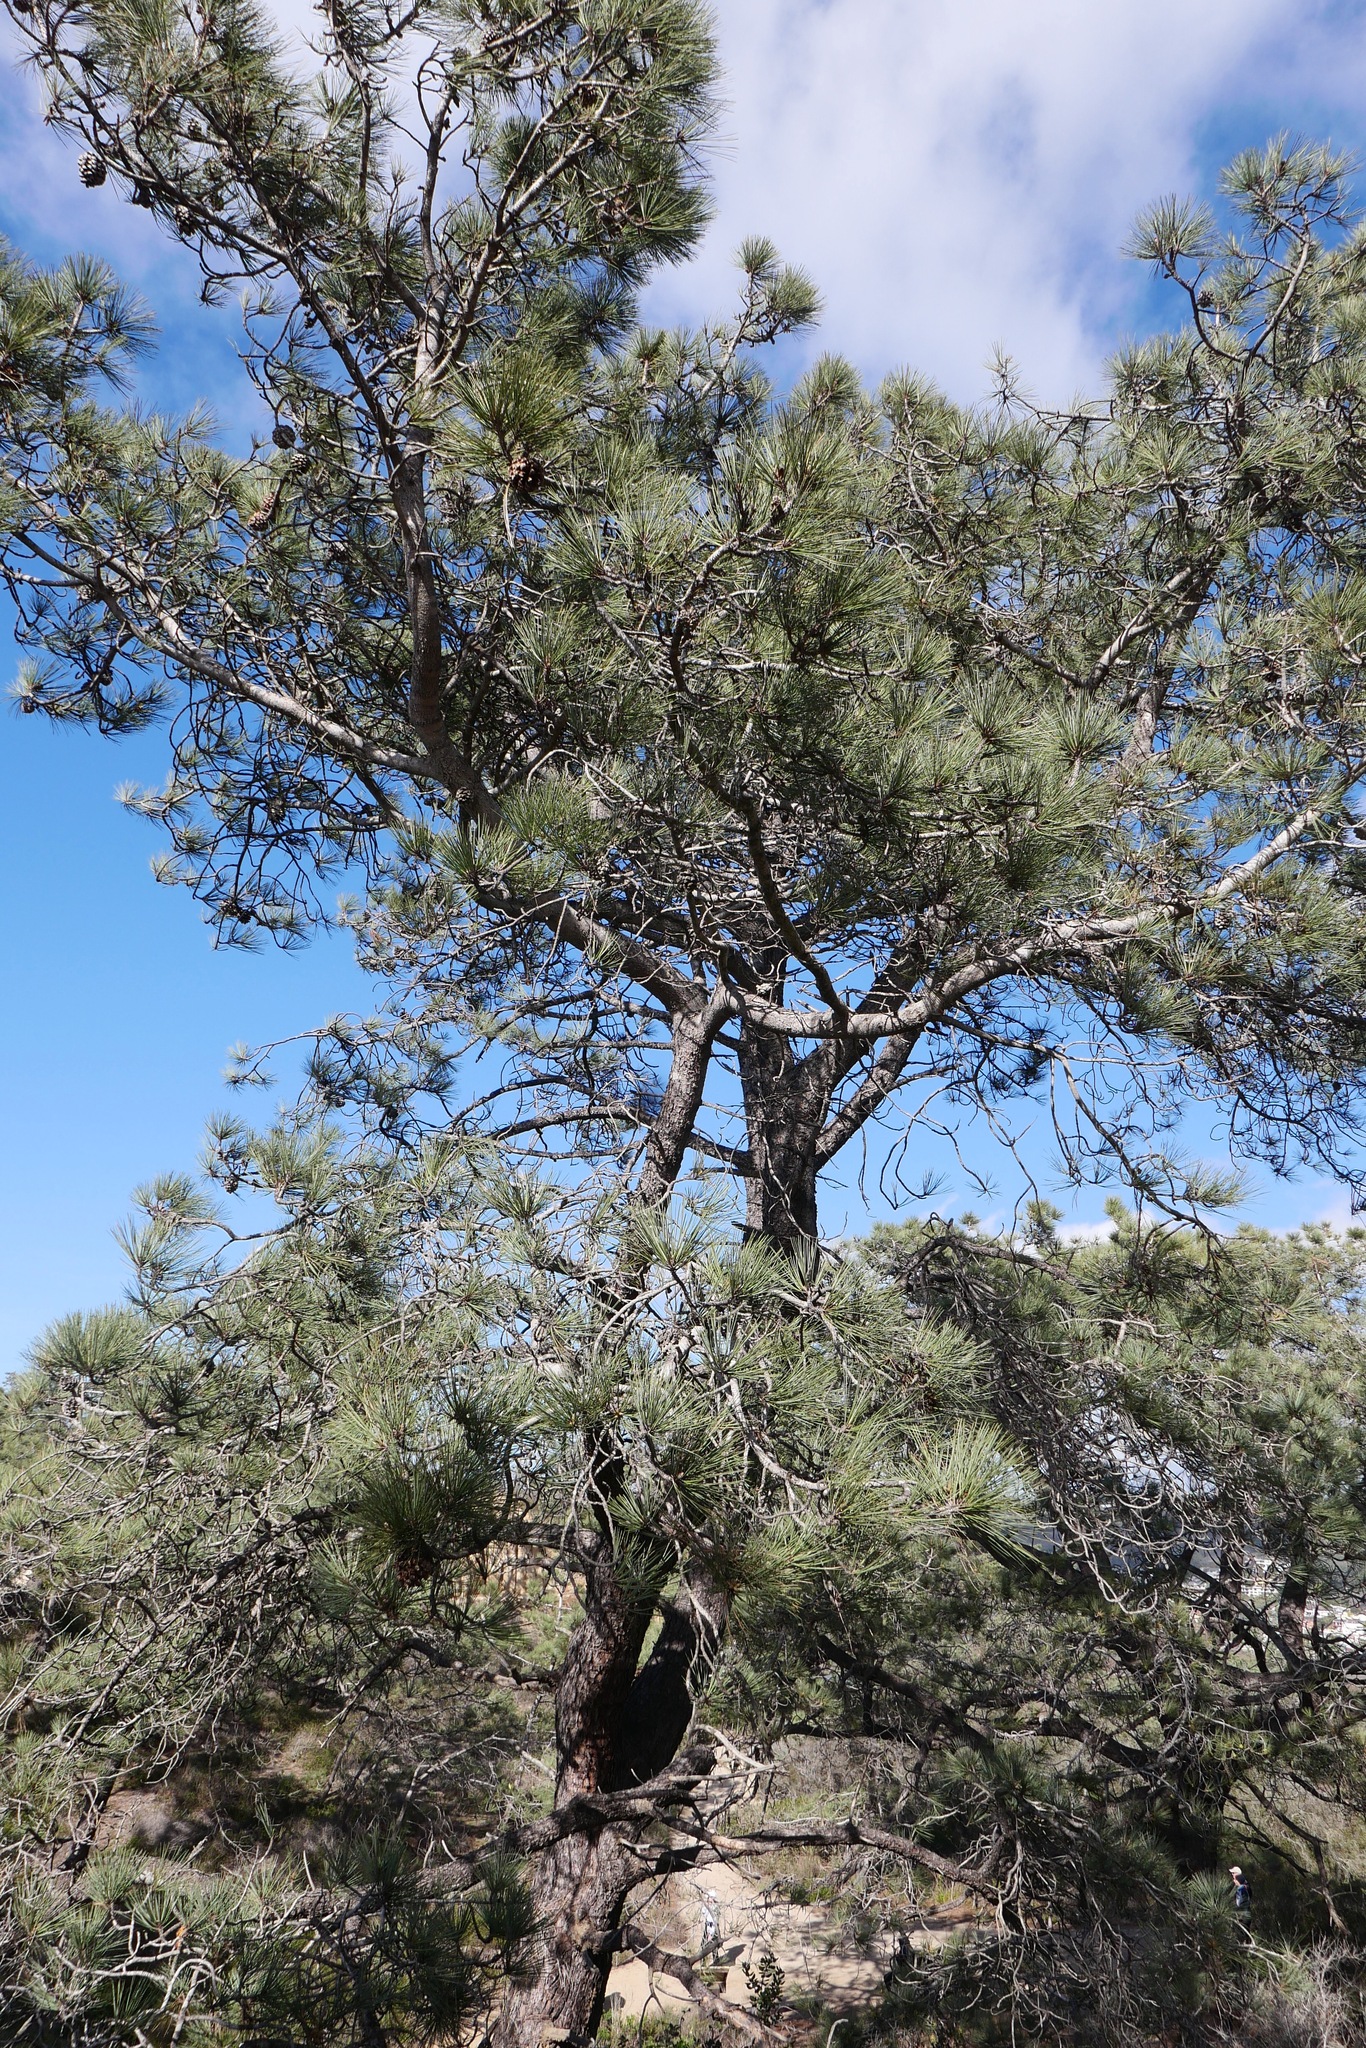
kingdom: Plantae
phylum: Tracheophyta
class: Pinopsida
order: Pinales
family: Pinaceae
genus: Pinus
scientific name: Pinus torreyana
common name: Torrey pine
